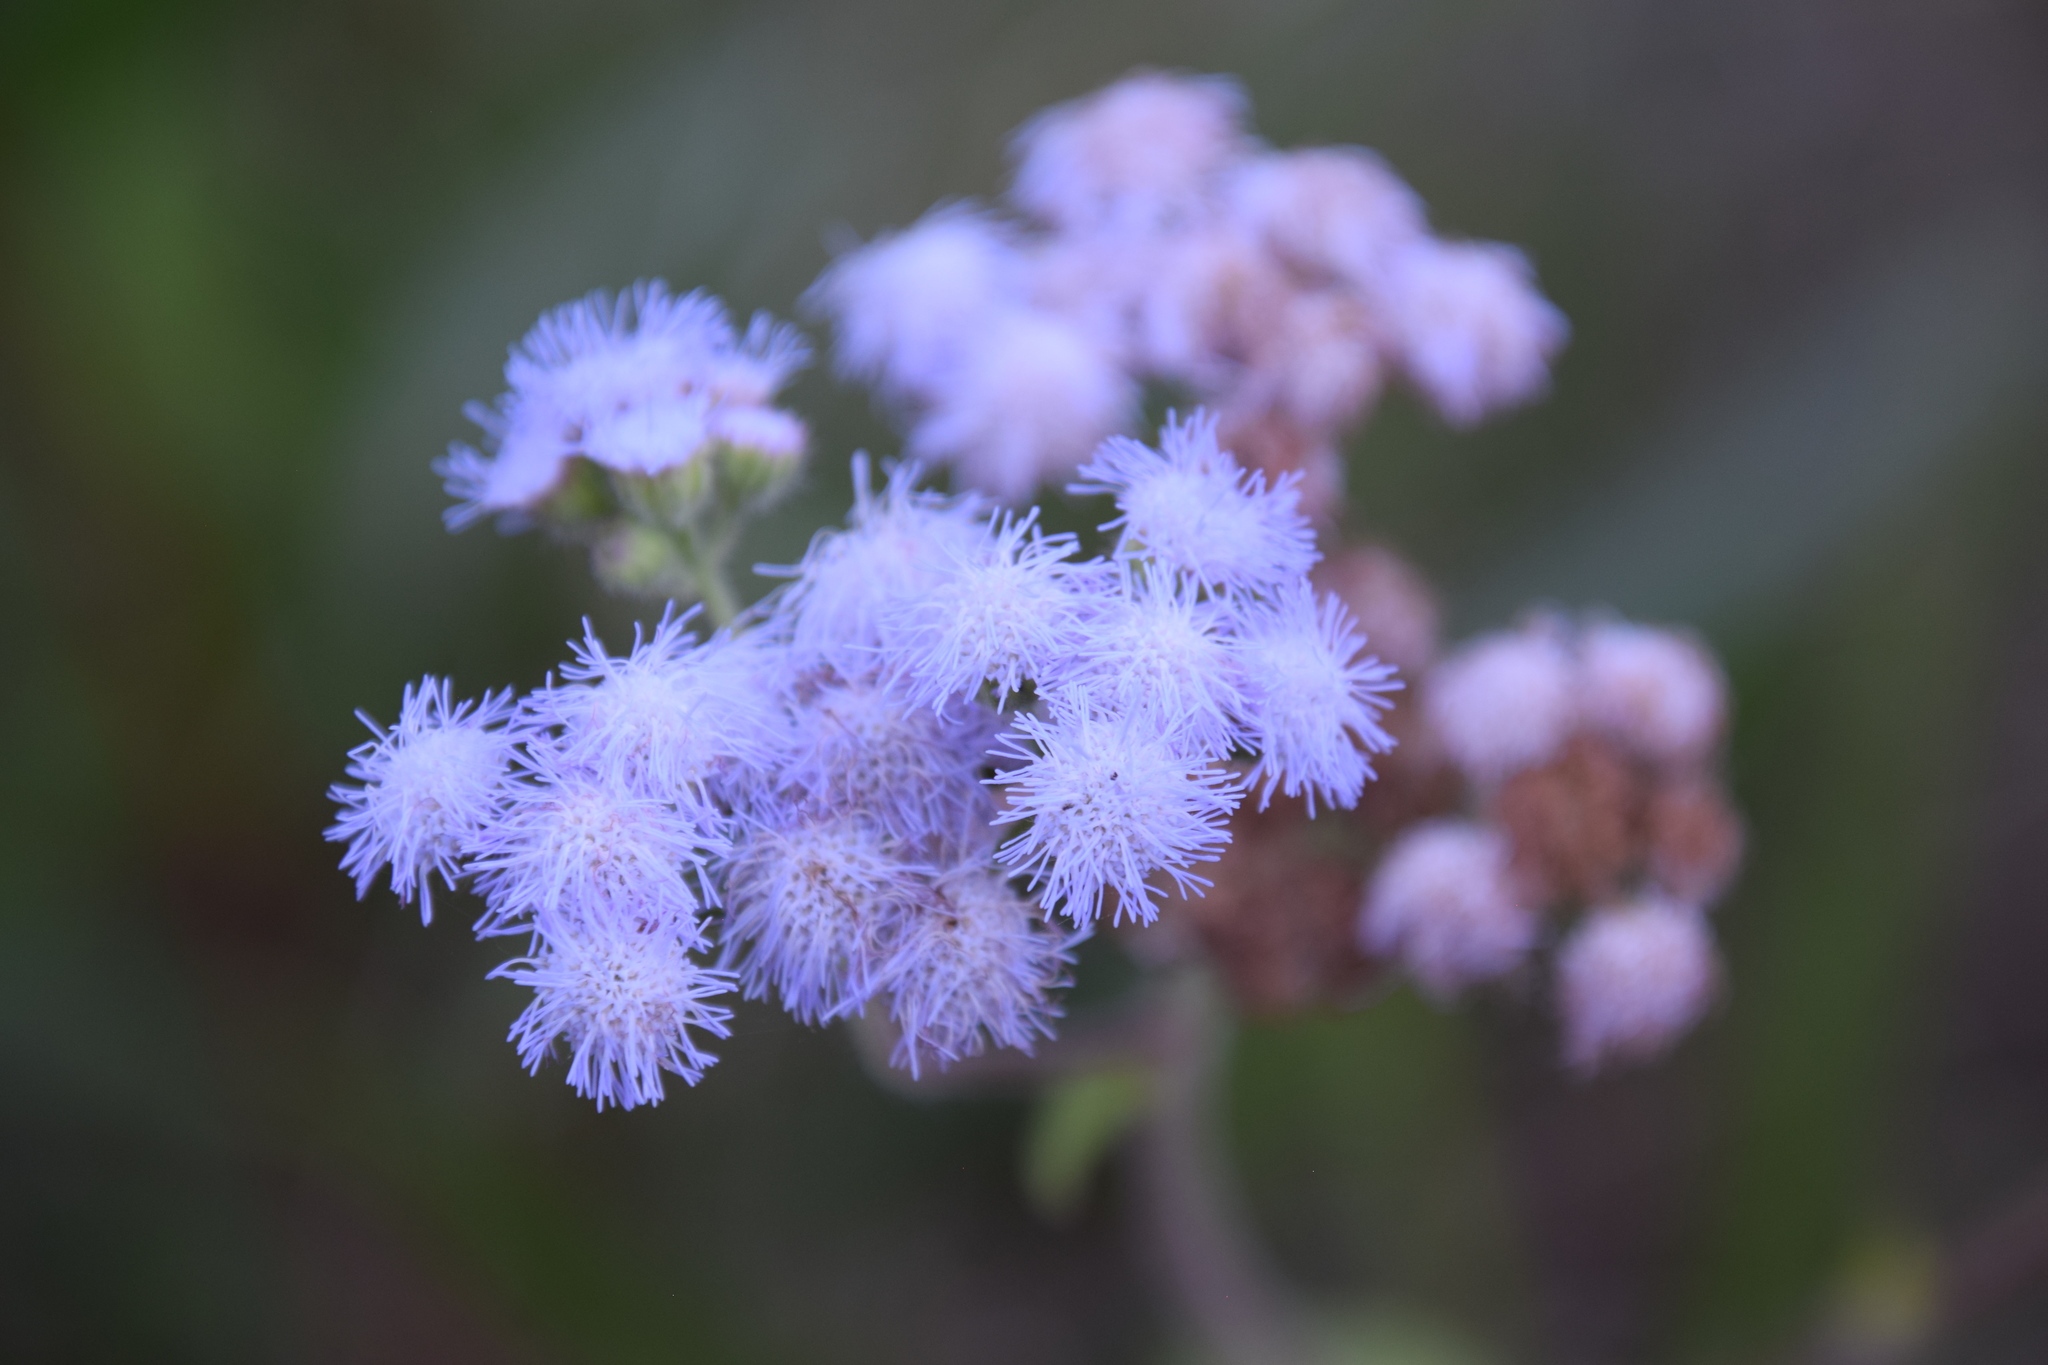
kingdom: Plantae
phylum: Tracheophyta
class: Magnoliopsida
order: Asterales
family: Asteraceae
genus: Ageratum
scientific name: Ageratum houstonianum
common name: Bluemink
